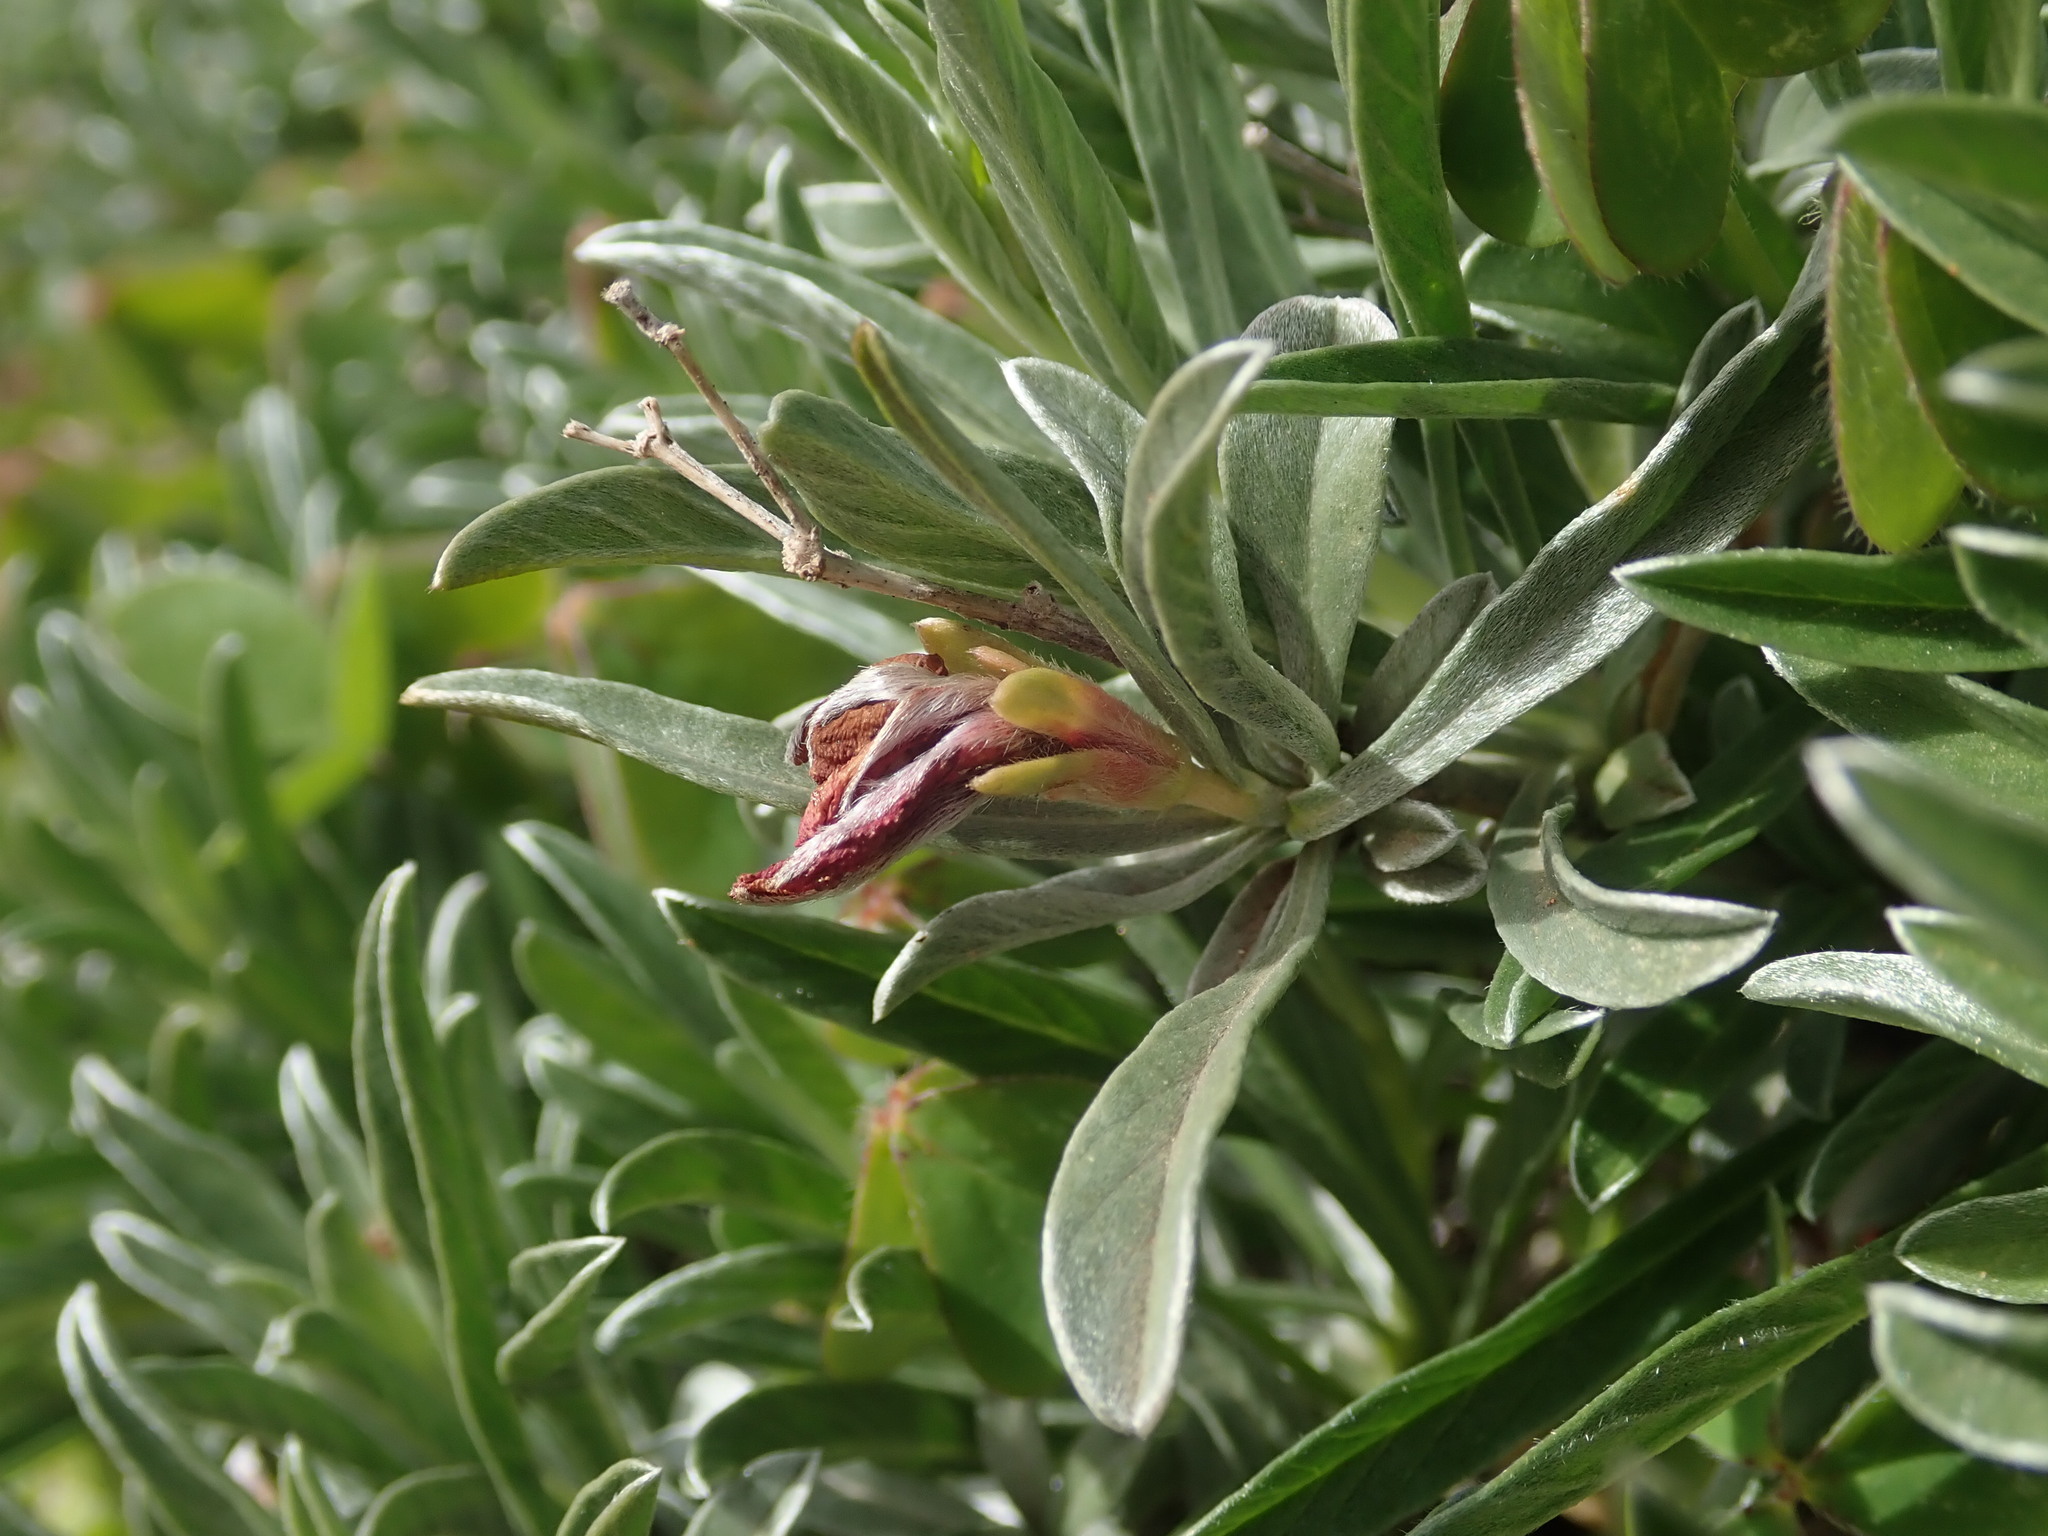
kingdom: Plantae
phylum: Tracheophyta
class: Magnoliopsida
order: Solanales
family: Convolvulaceae
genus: Convolvulus
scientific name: Convolvulus oleifolius
